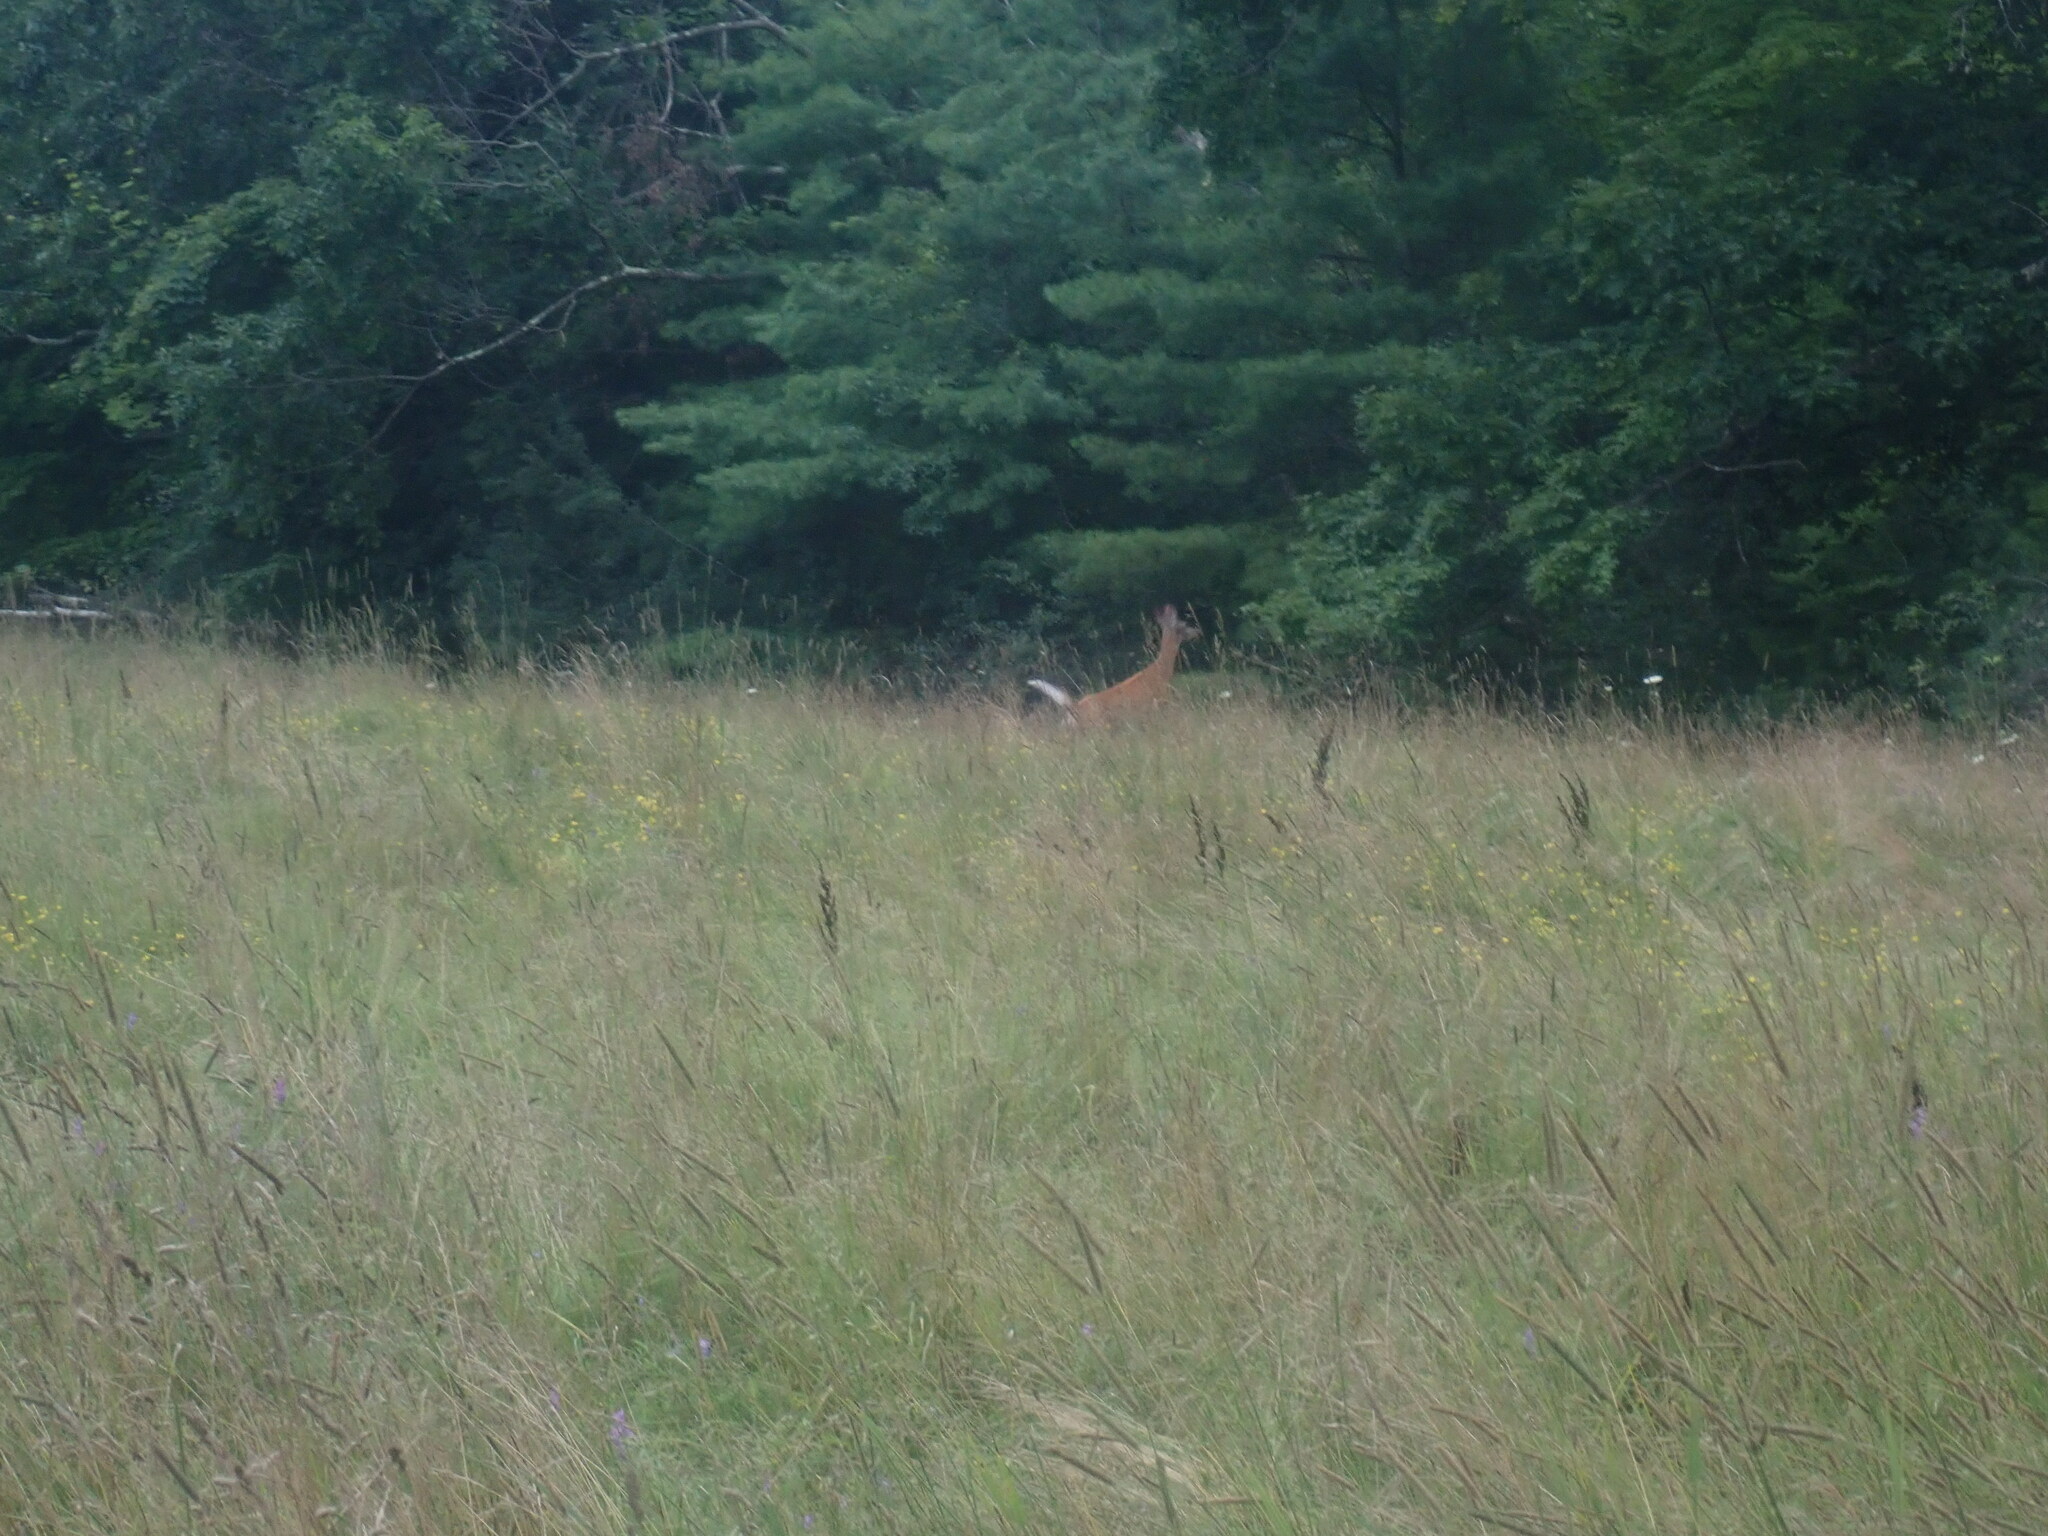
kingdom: Animalia
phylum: Chordata
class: Mammalia
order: Artiodactyla
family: Cervidae
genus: Odocoileus
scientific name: Odocoileus virginianus
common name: White-tailed deer
